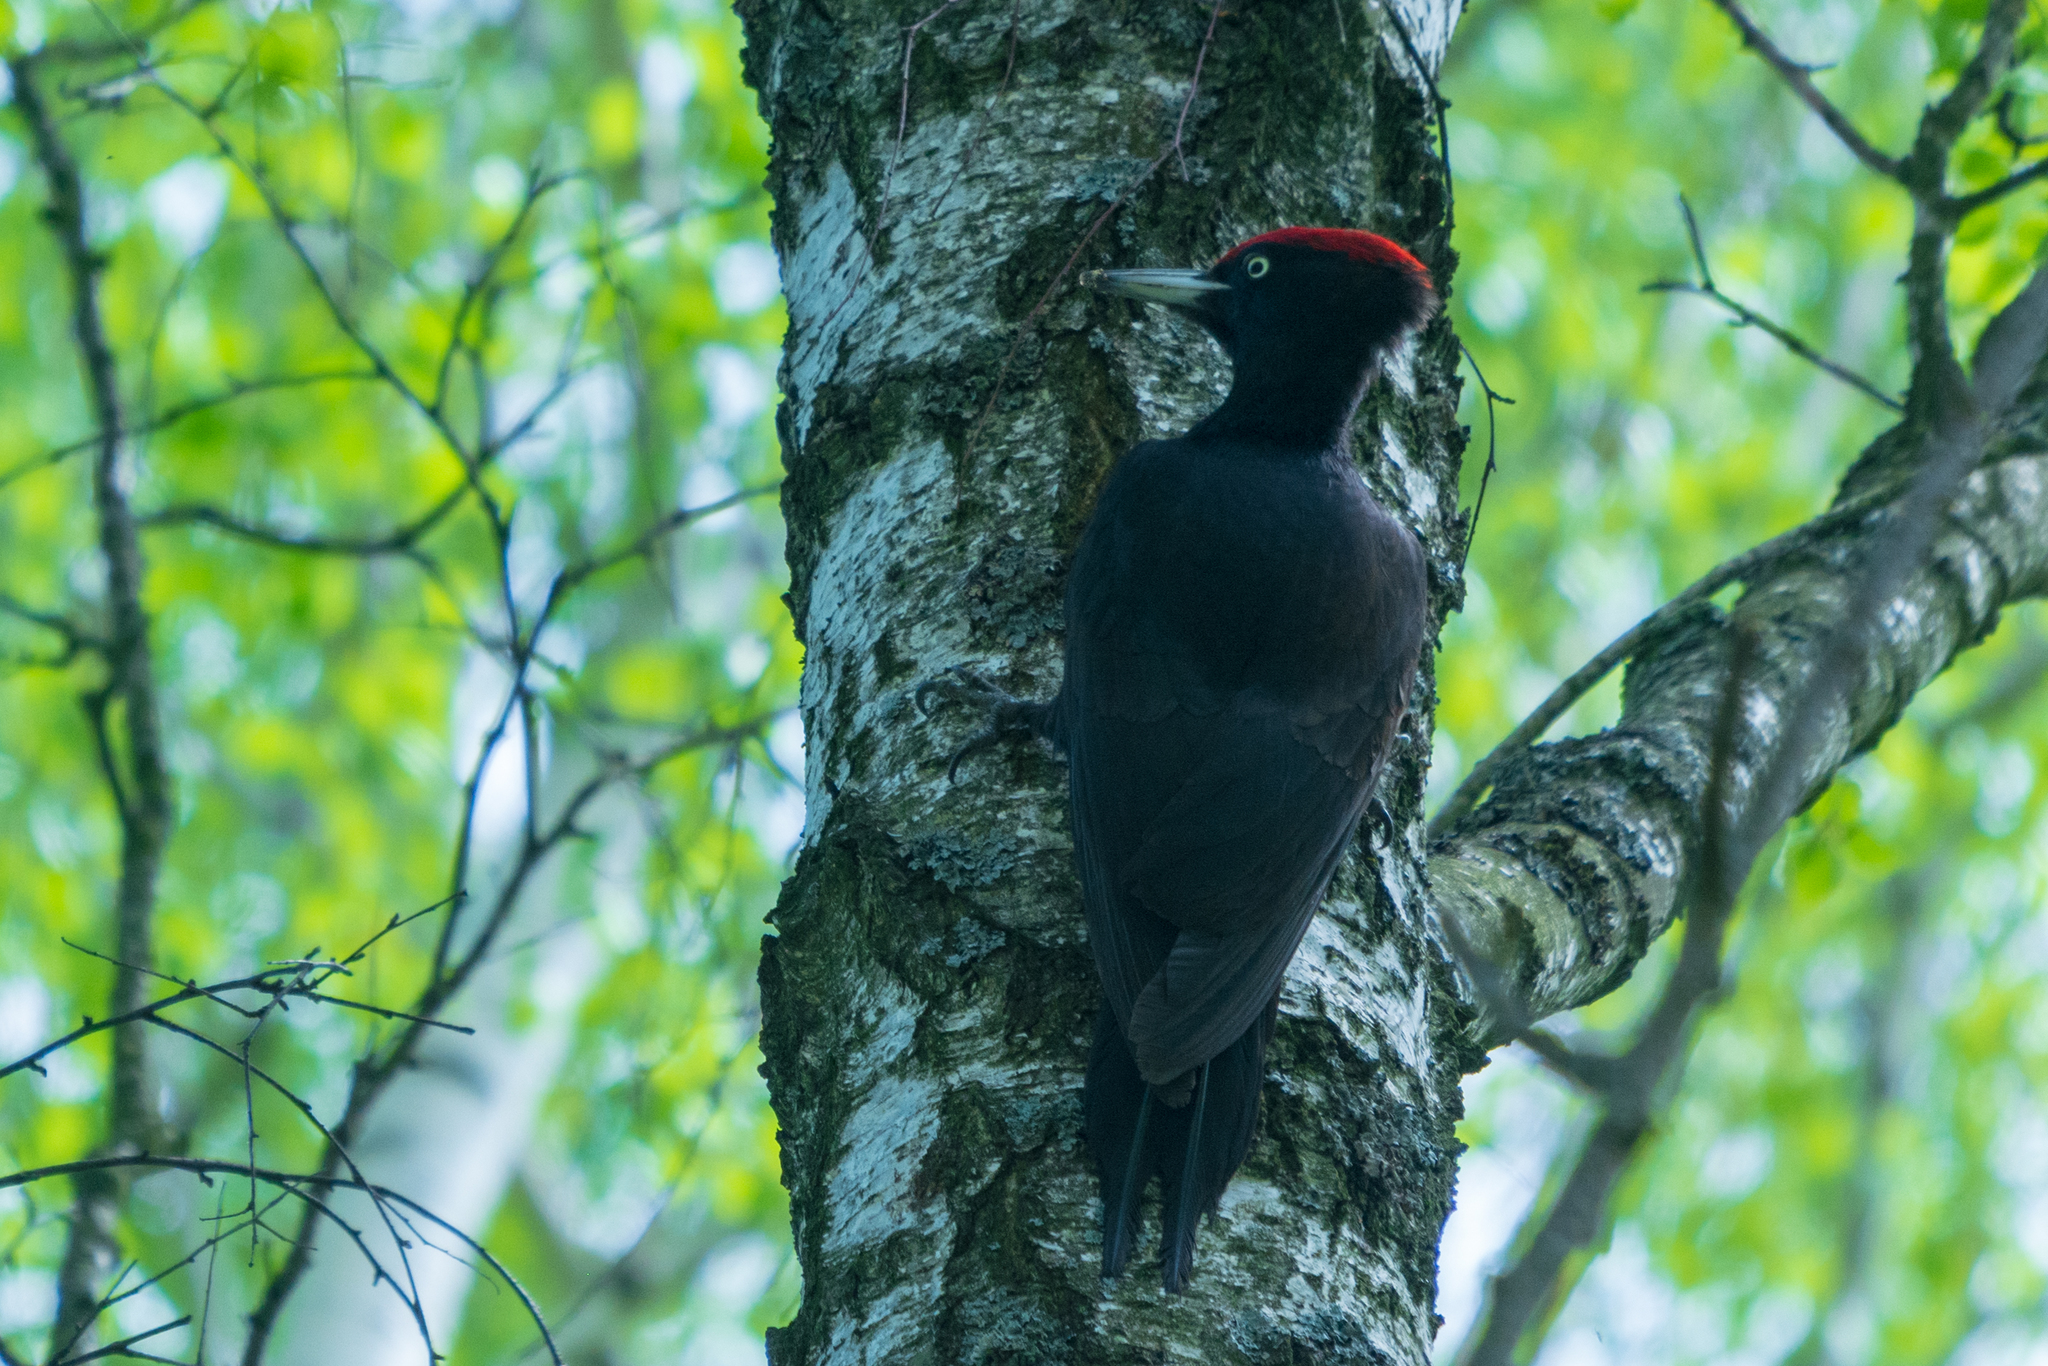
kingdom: Animalia
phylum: Chordata
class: Aves
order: Piciformes
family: Picidae
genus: Dryocopus
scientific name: Dryocopus martius
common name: Black woodpecker
